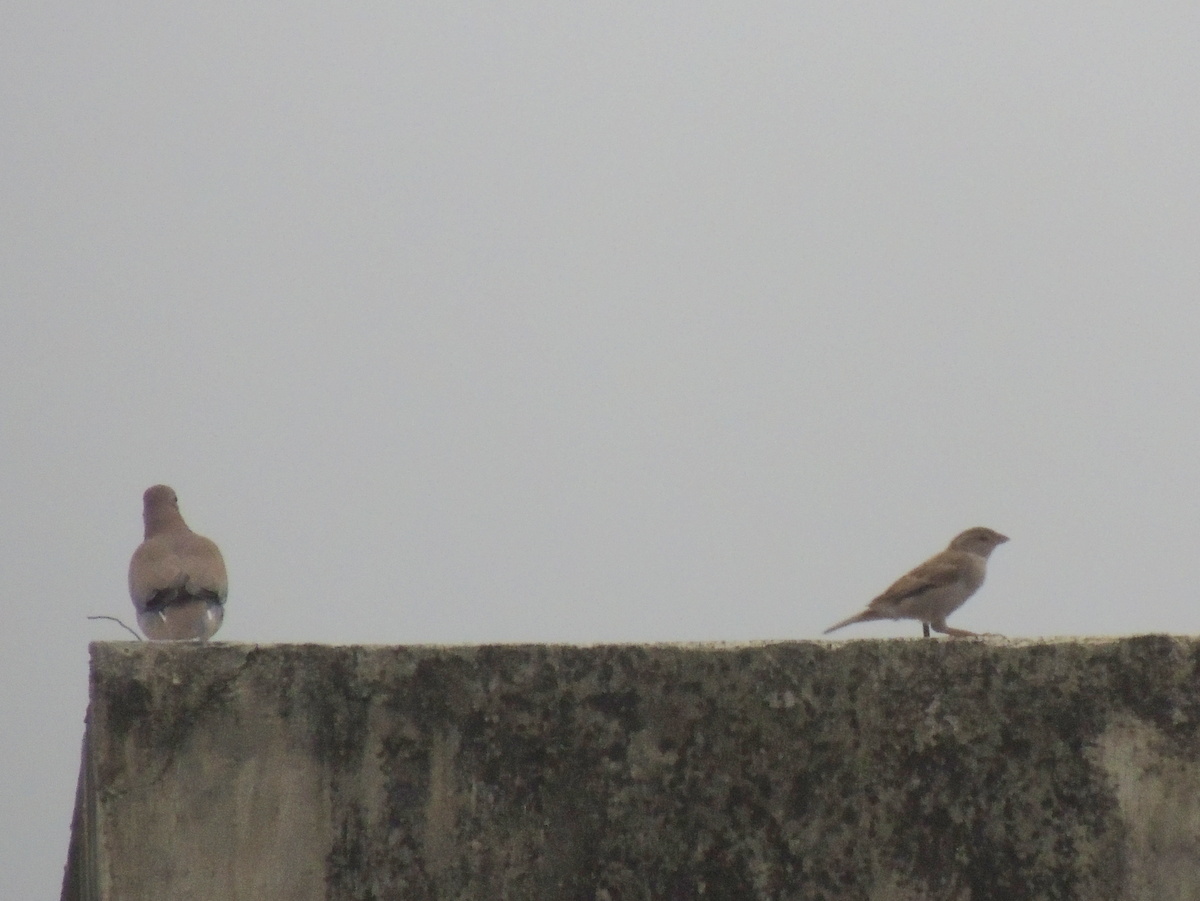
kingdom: Animalia
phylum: Chordata
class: Aves
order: Passeriformes
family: Passeridae
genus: Passer
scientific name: Passer domesticus
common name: House sparrow
